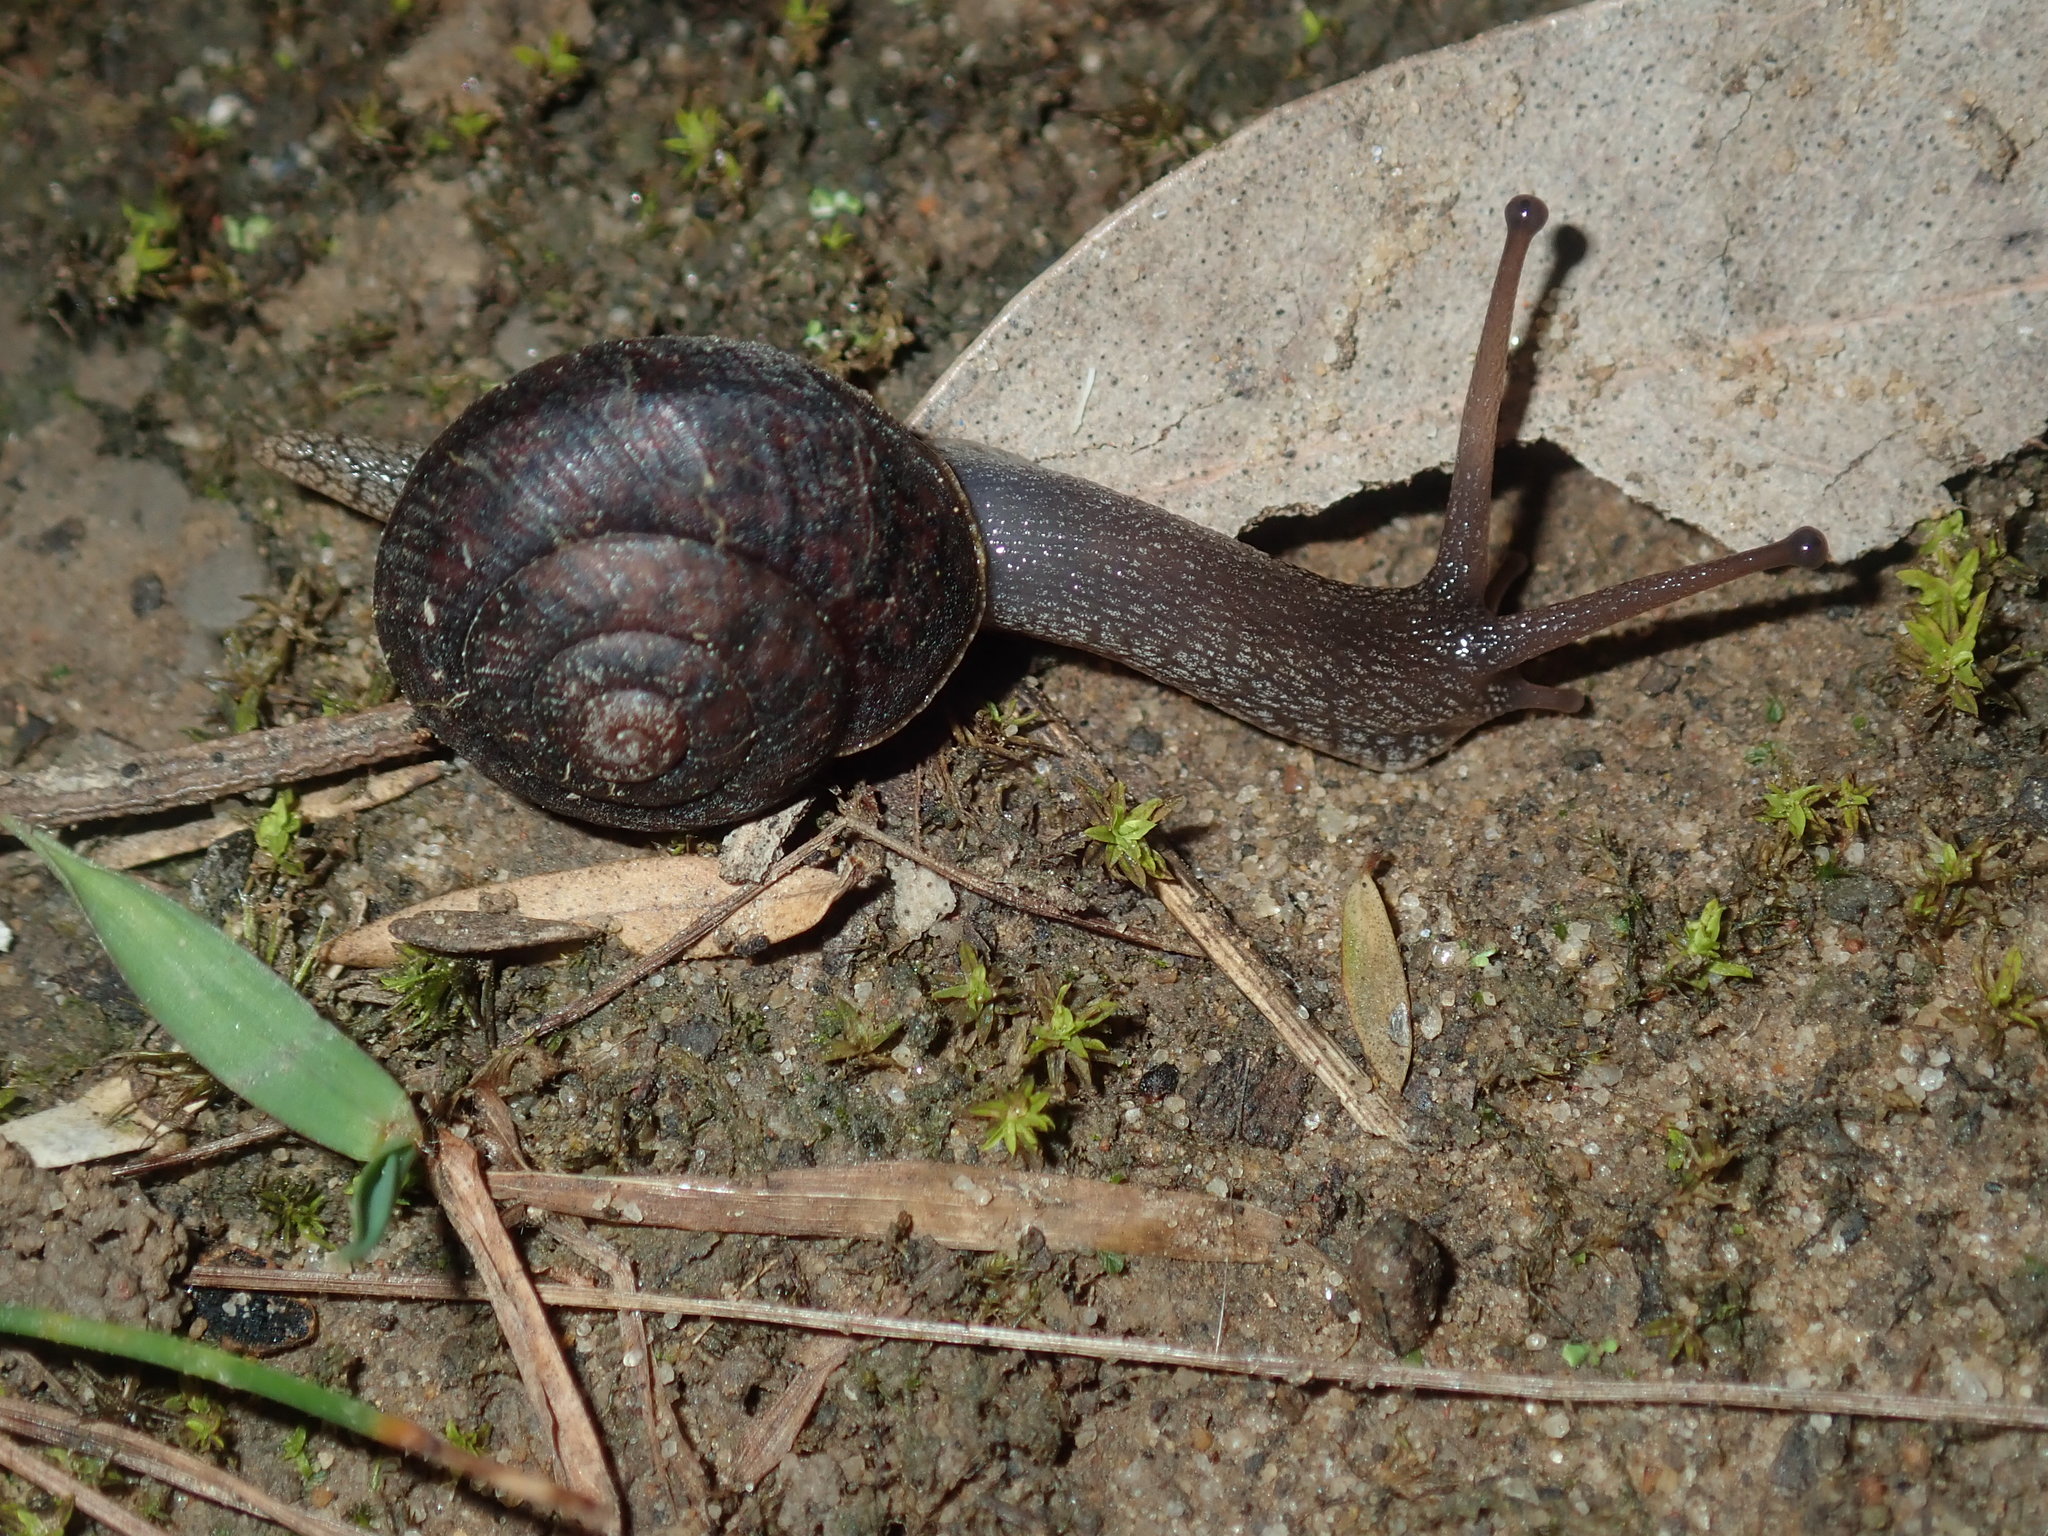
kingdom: Animalia
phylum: Mollusca
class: Gastropoda
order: Stylommatophora
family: Camaenidae
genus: Sauroconcha
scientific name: Sauroconcha sheai
